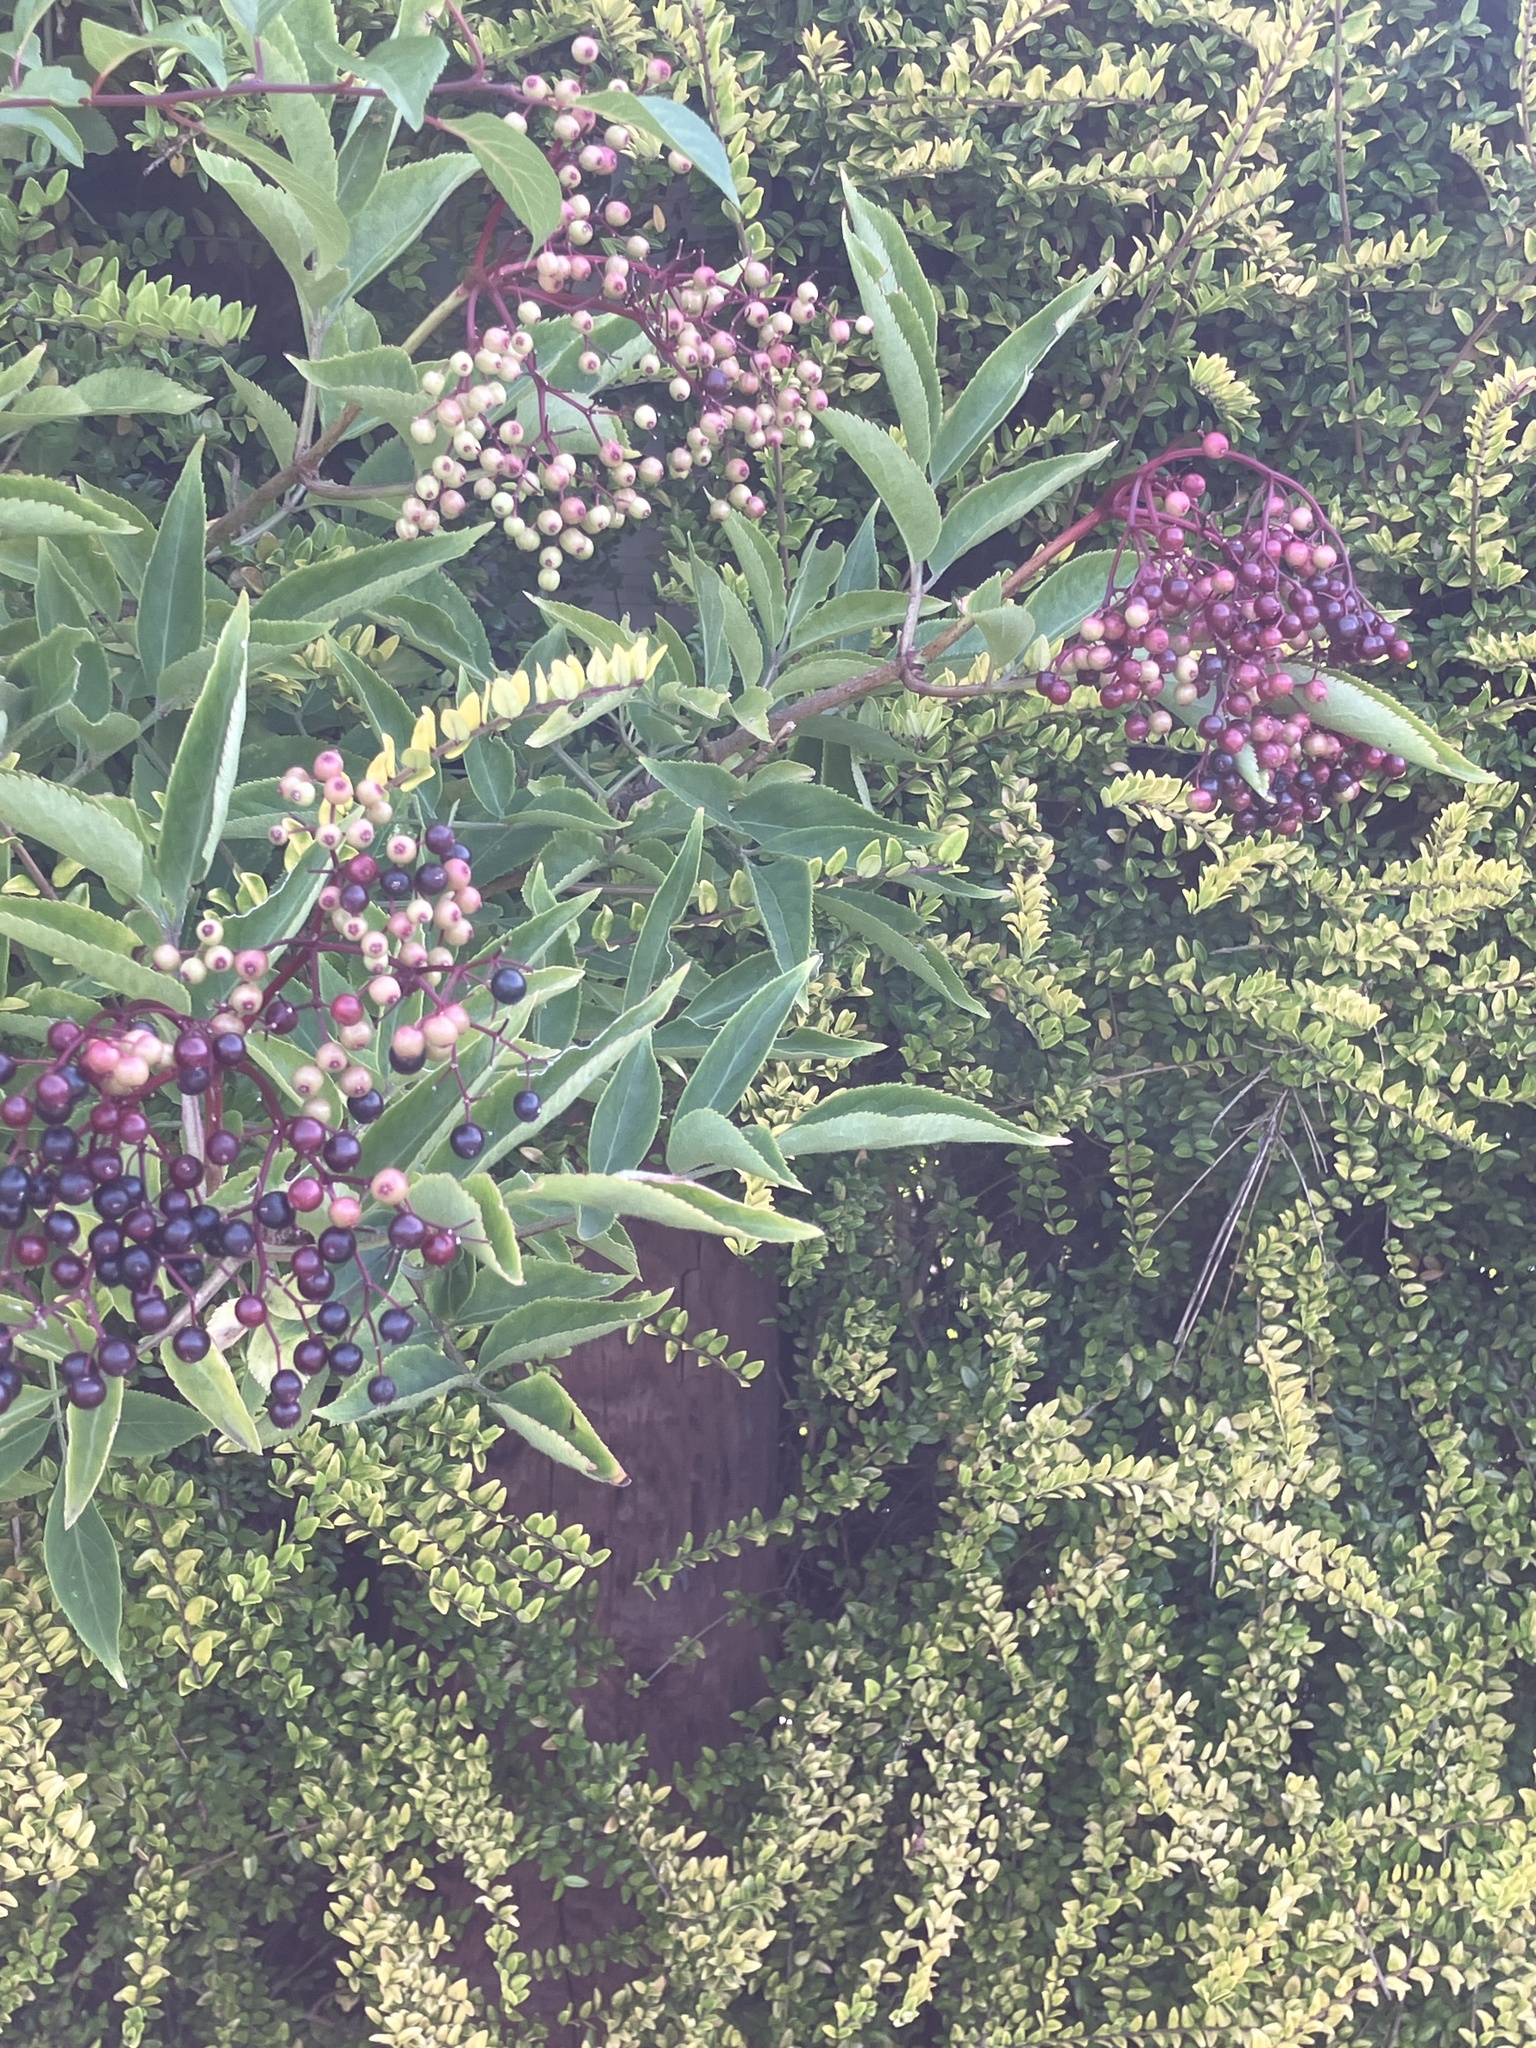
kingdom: Plantae
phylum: Tracheophyta
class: Magnoliopsida
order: Dipsacales
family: Viburnaceae
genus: Sambucus
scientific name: Sambucus nigra
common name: Elder
